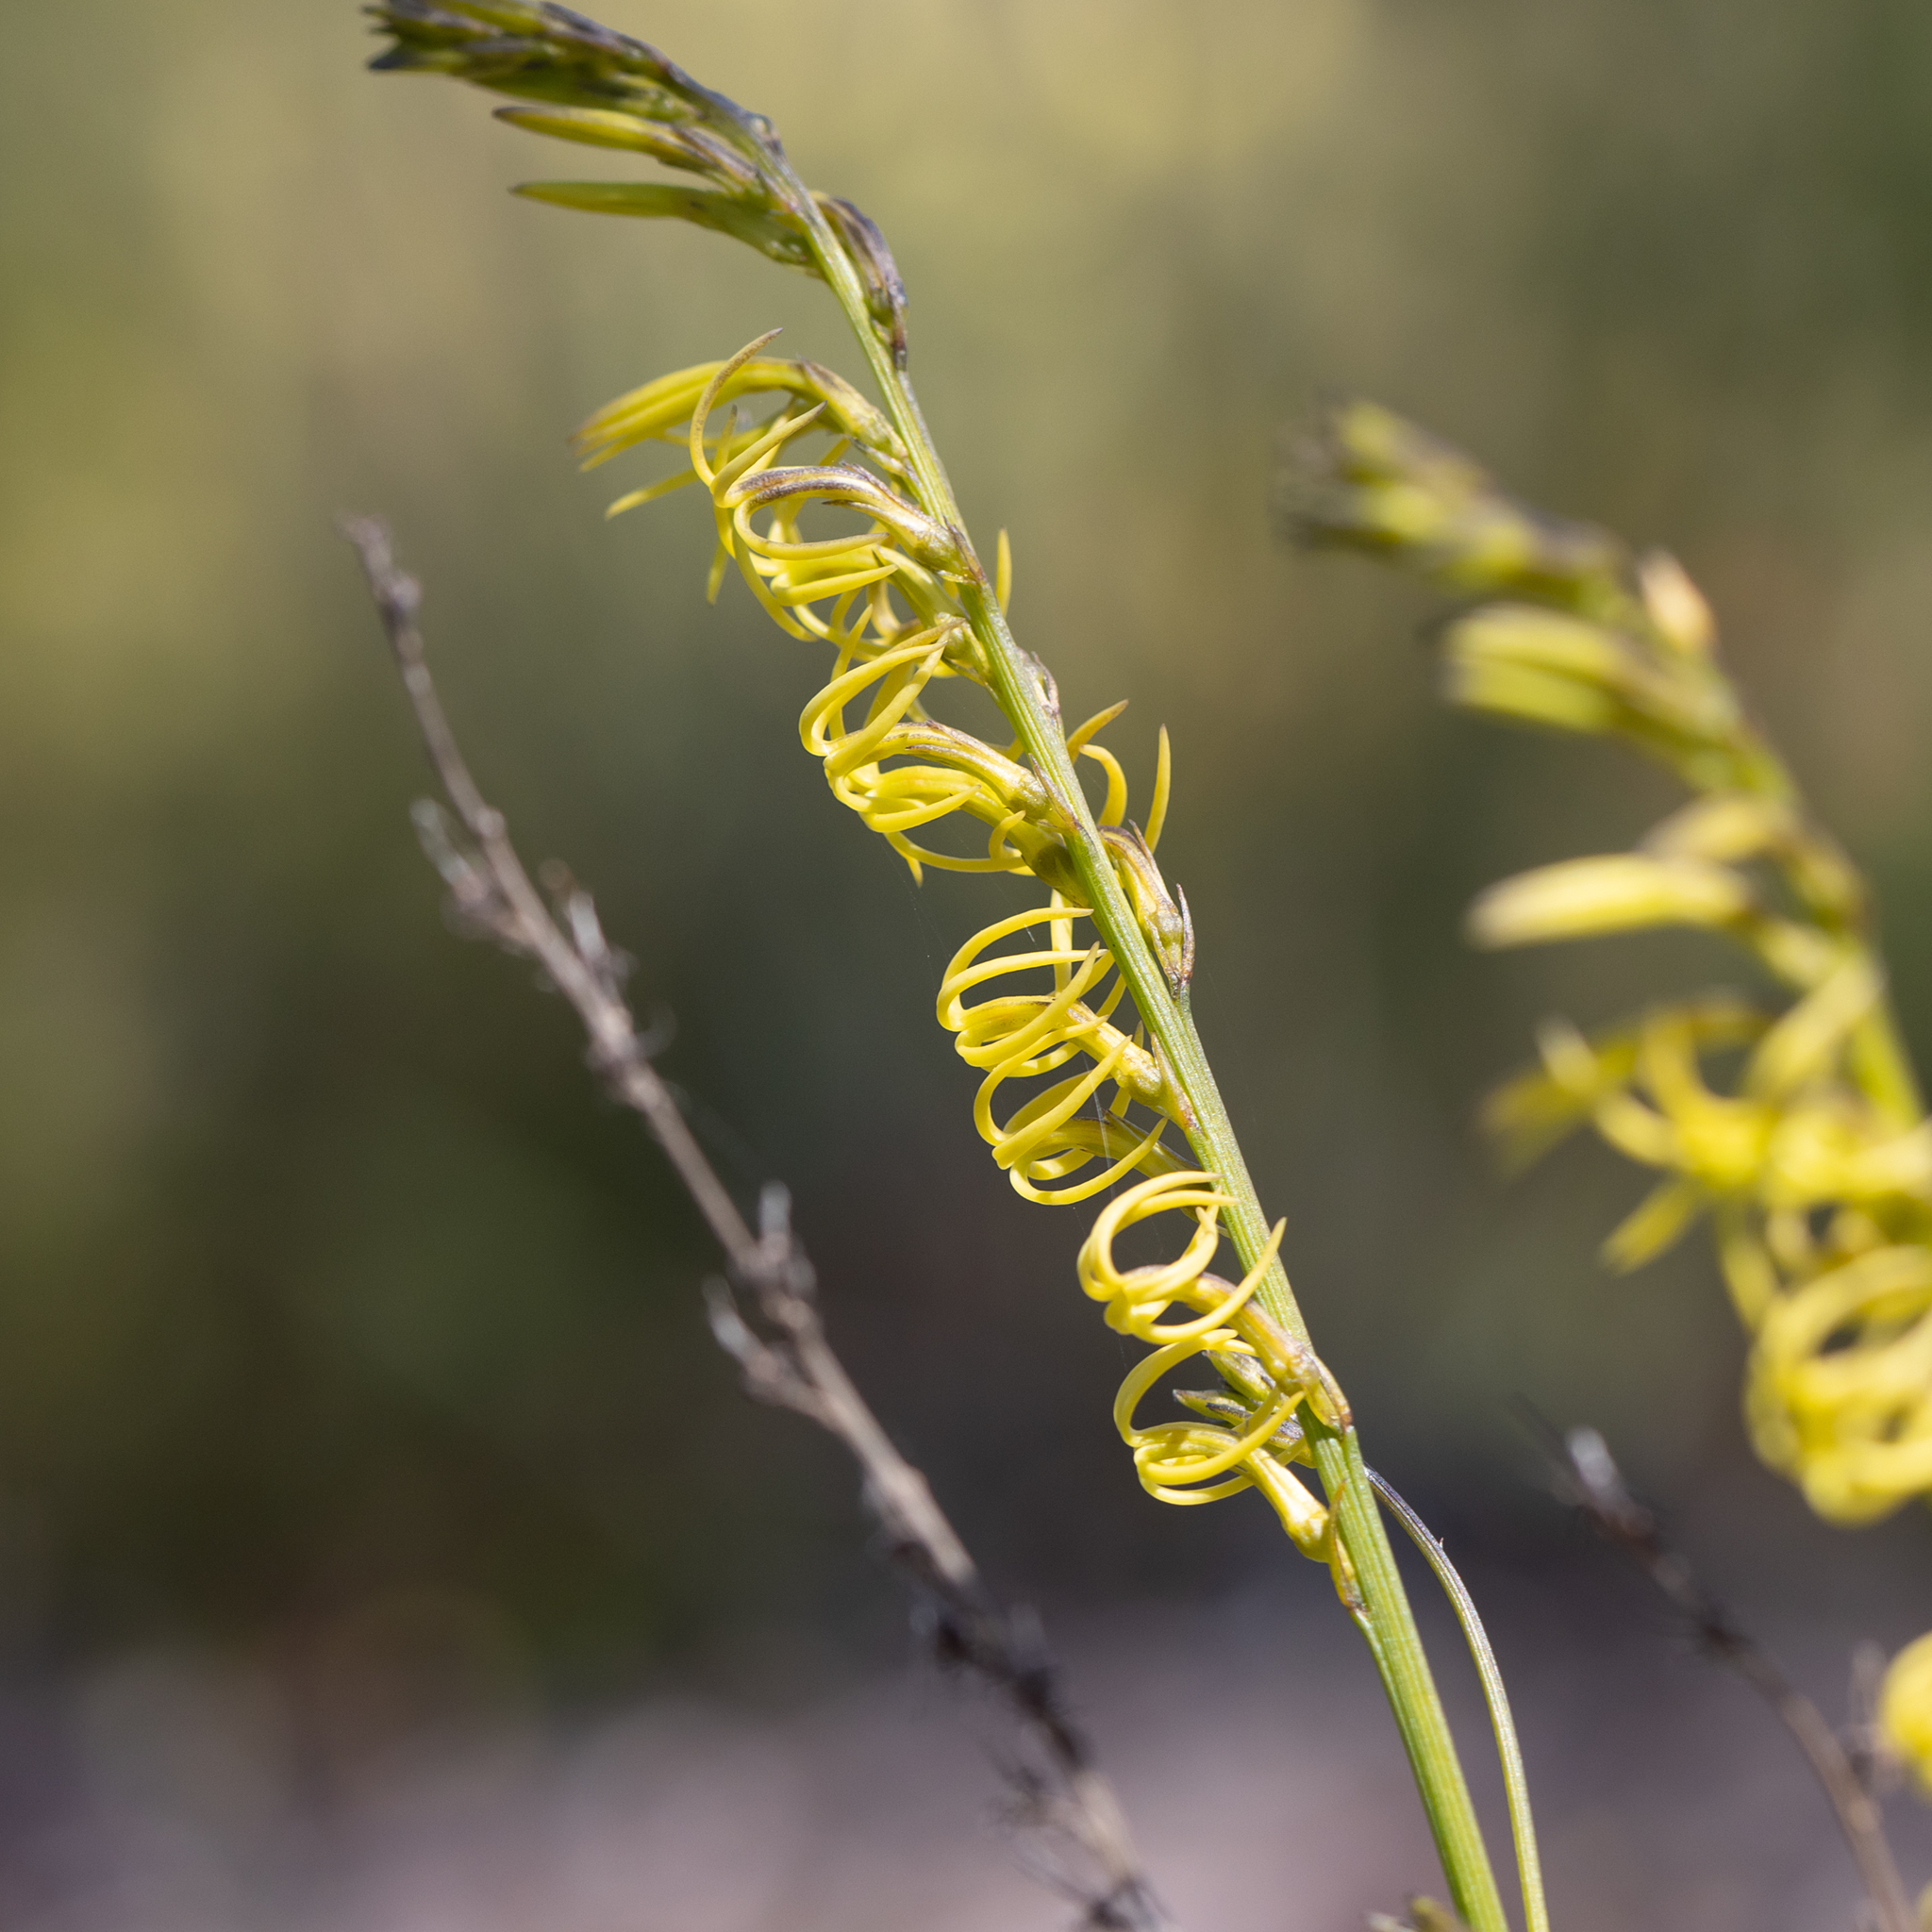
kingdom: Plantae
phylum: Tracheophyta
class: Magnoliopsida
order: Celastrales
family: Celastraceae
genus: Tripterococcus
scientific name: Tripterococcus brunonis
